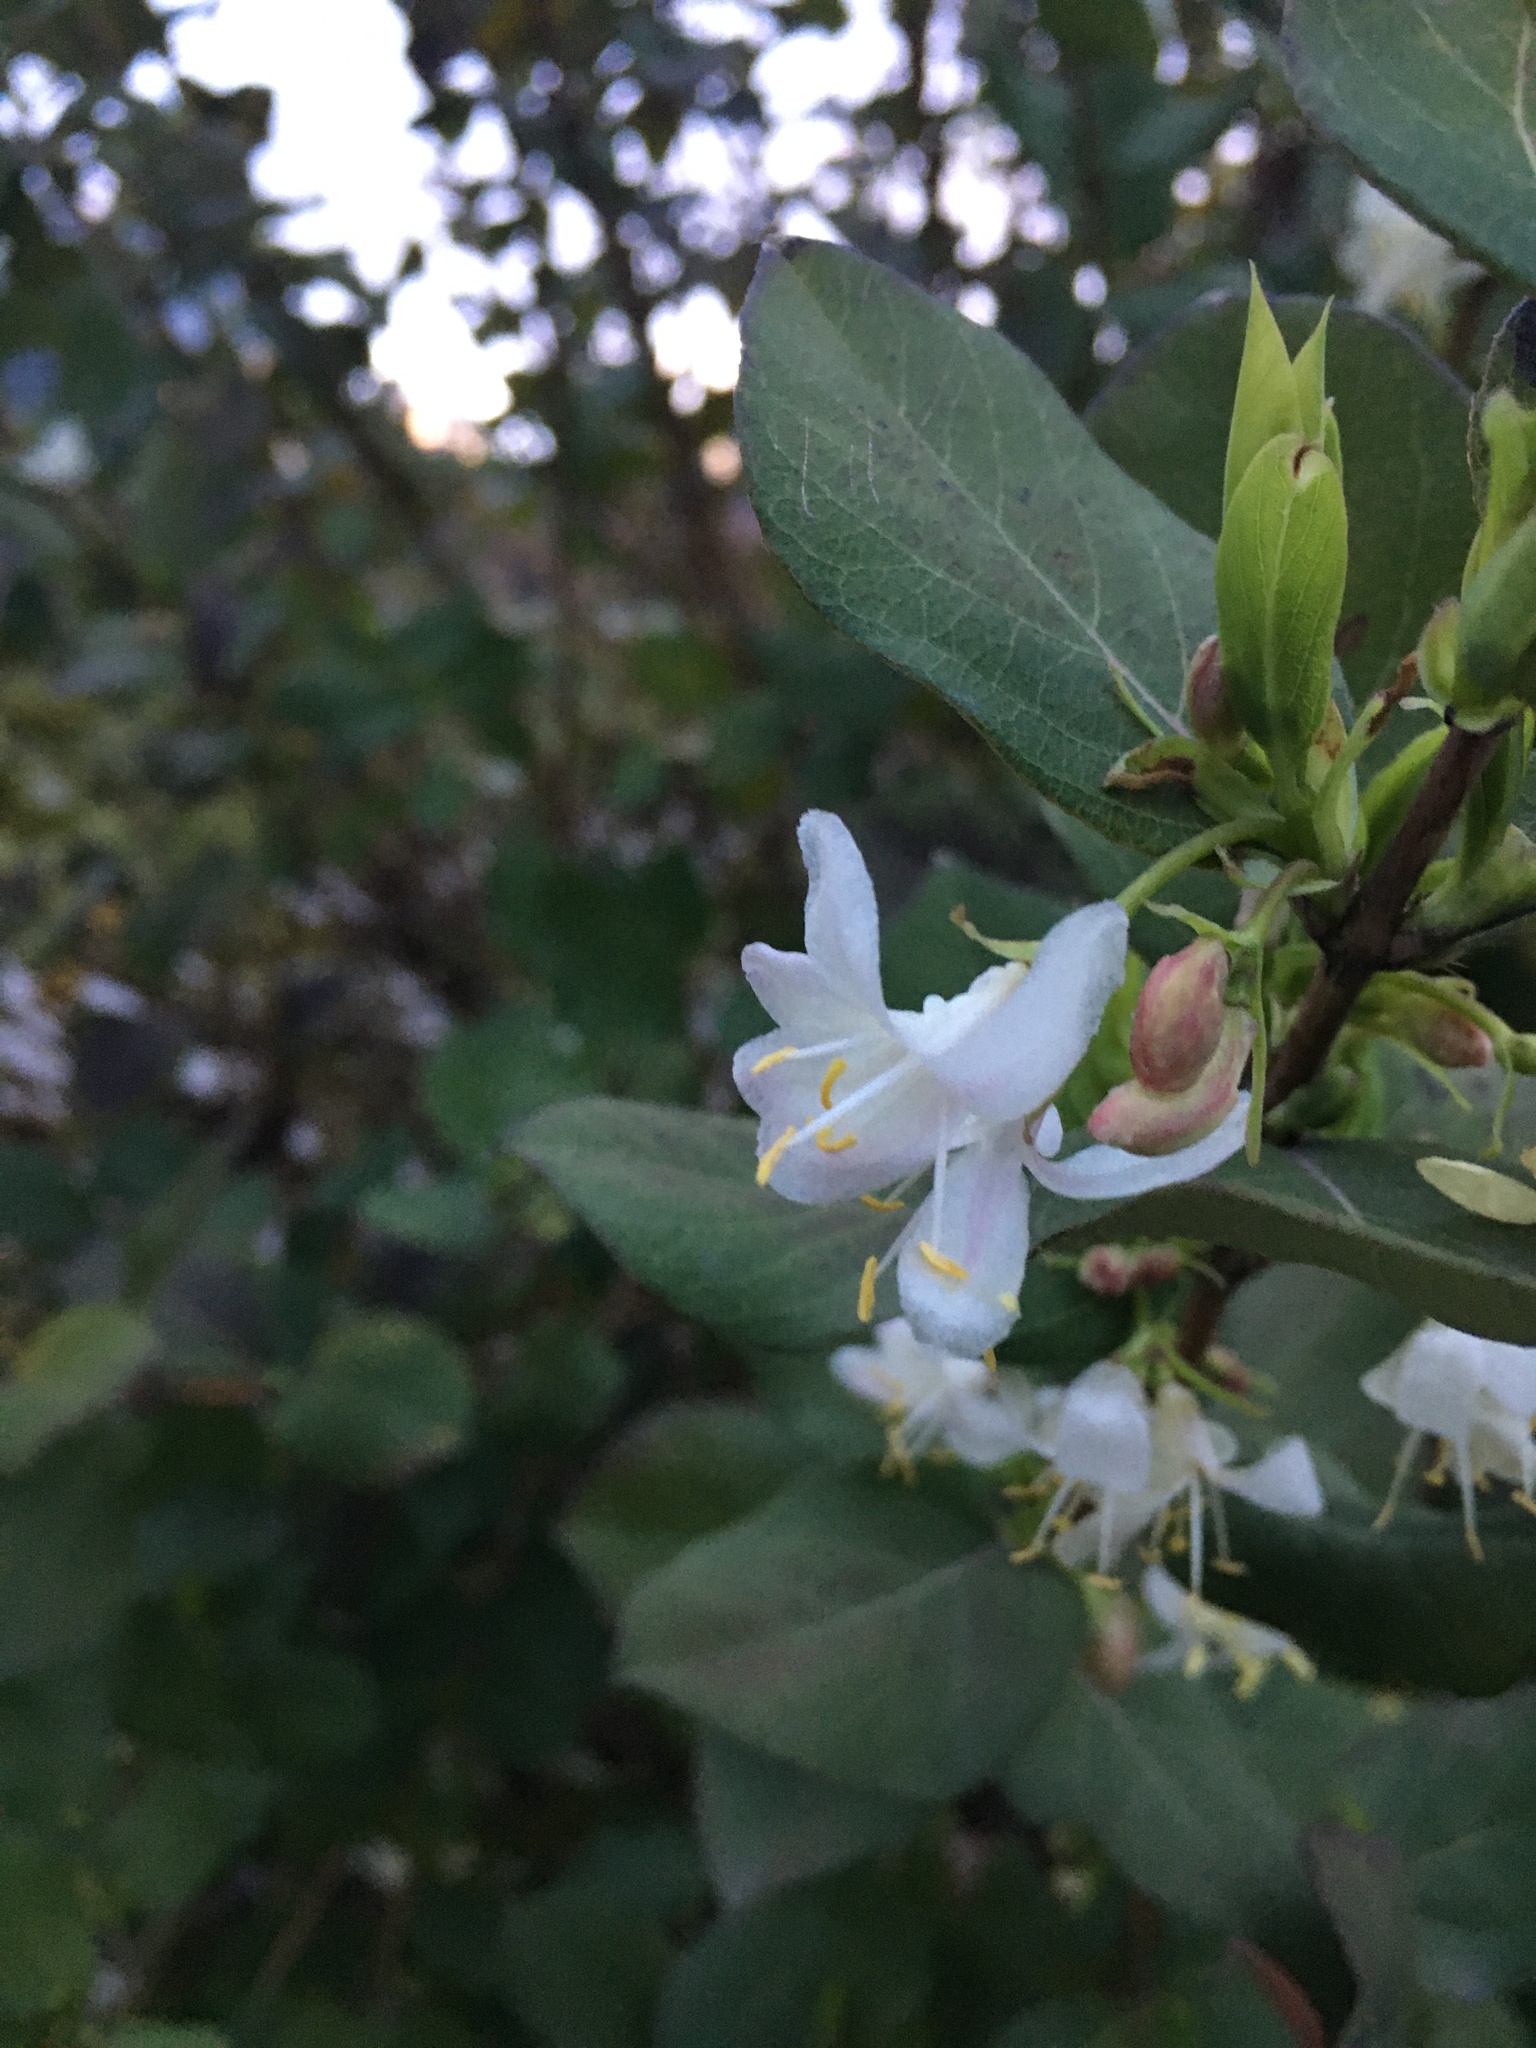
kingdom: Plantae
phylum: Tracheophyta
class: Magnoliopsida
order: Dipsacales
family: Caprifoliaceae
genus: Lonicera
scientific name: Lonicera fragrantissima
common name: Fragrant honeysuckle
